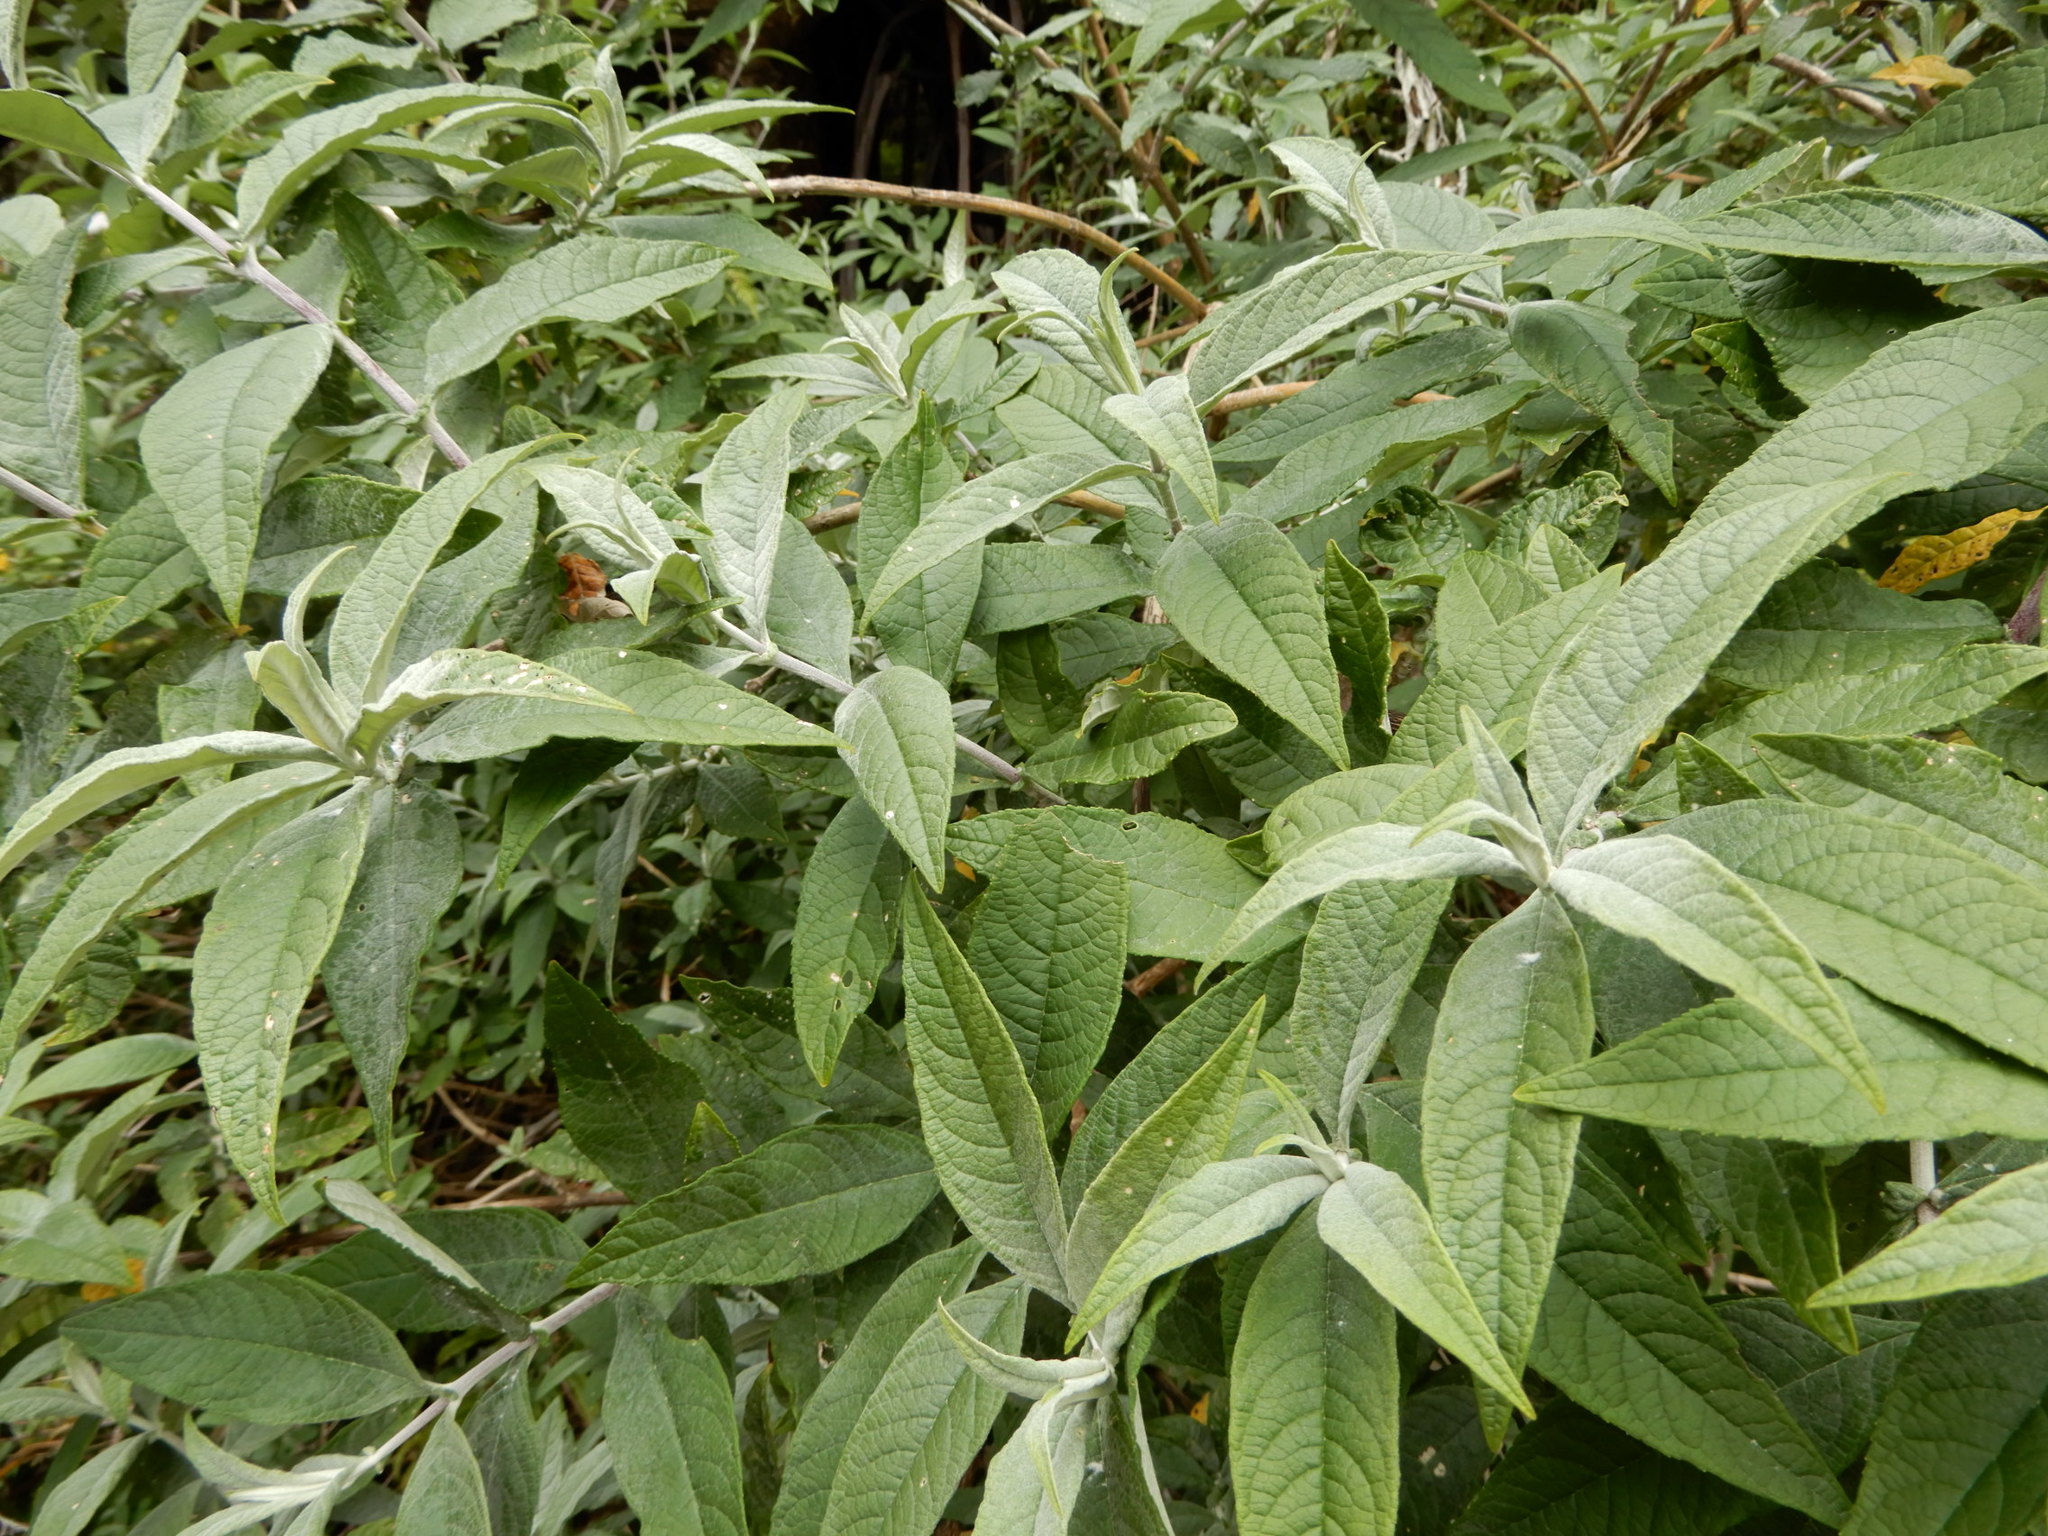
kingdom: Plantae
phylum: Tracheophyta
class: Magnoliopsida
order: Lamiales
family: Scrophulariaceae
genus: Buddleja
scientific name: Buddleja davidii
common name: Butterfly-bush
